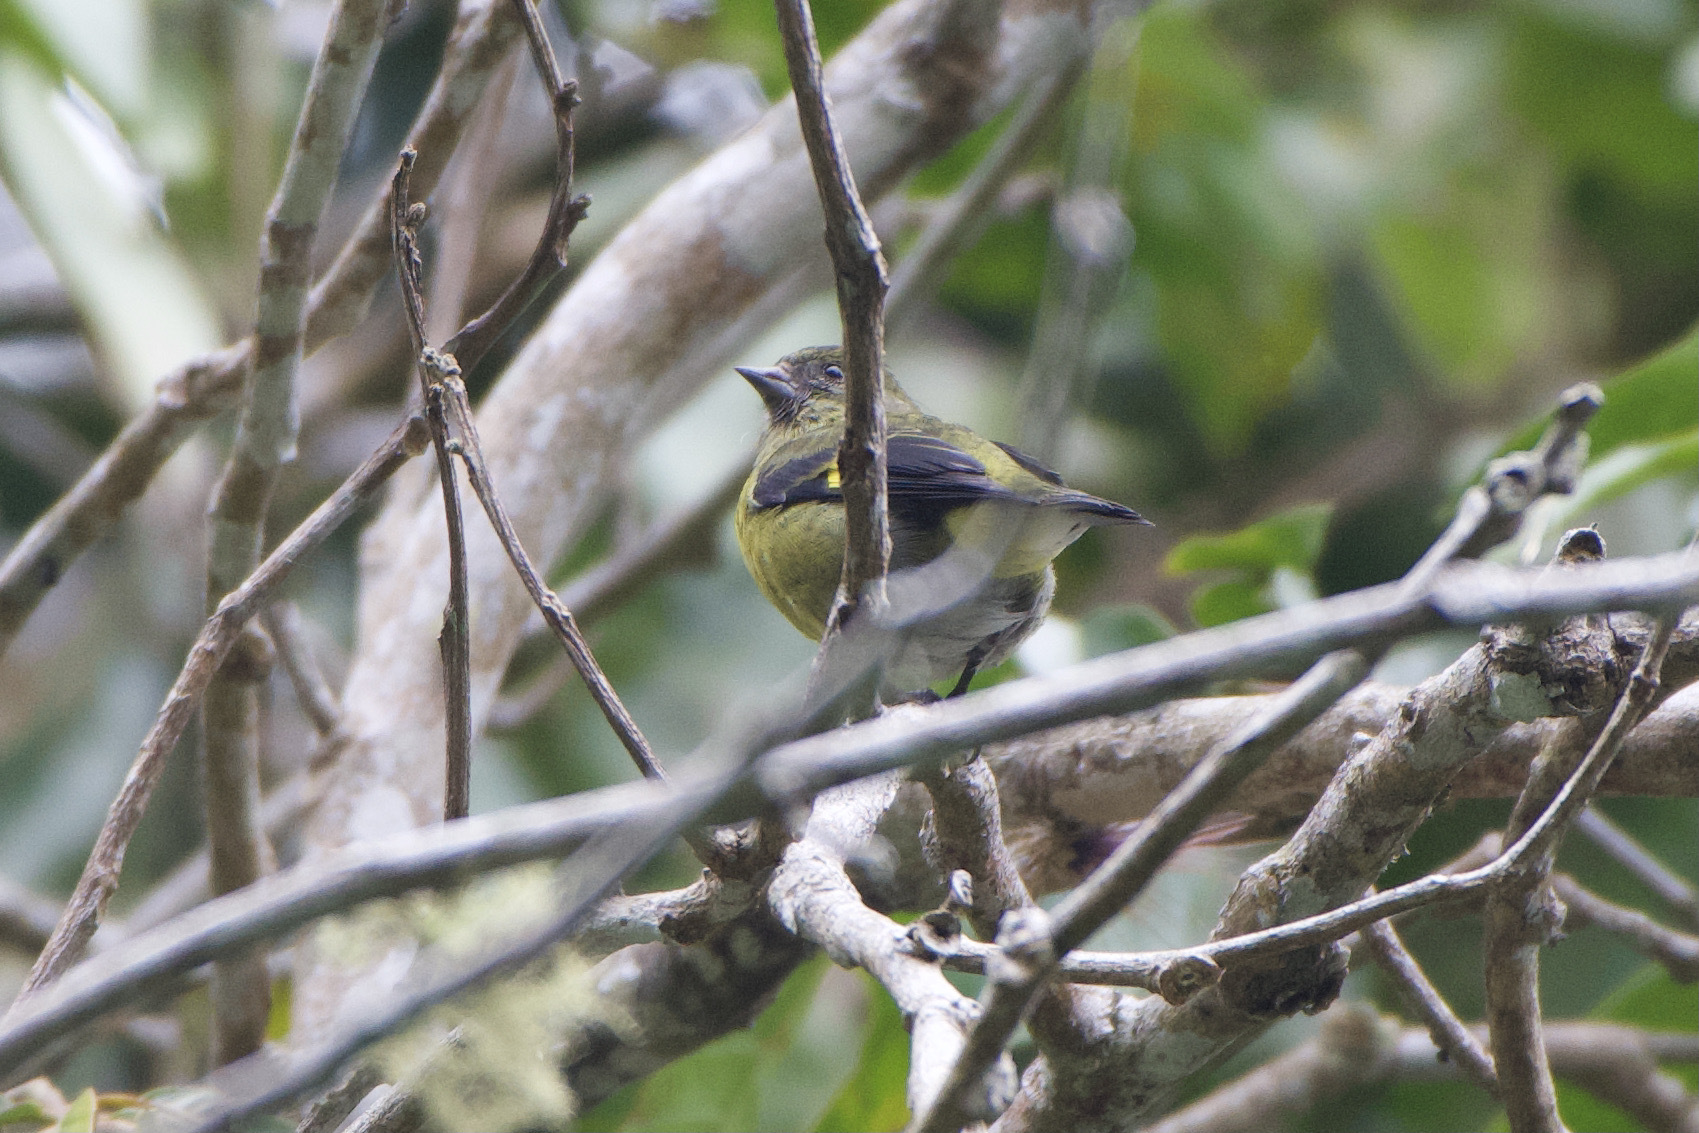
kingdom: Animalia
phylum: Chordata
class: Aves
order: Passeriformes
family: Fringillidae
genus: Spinus
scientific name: Spinus xanthogastrus
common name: Yellow-bellied siskin
